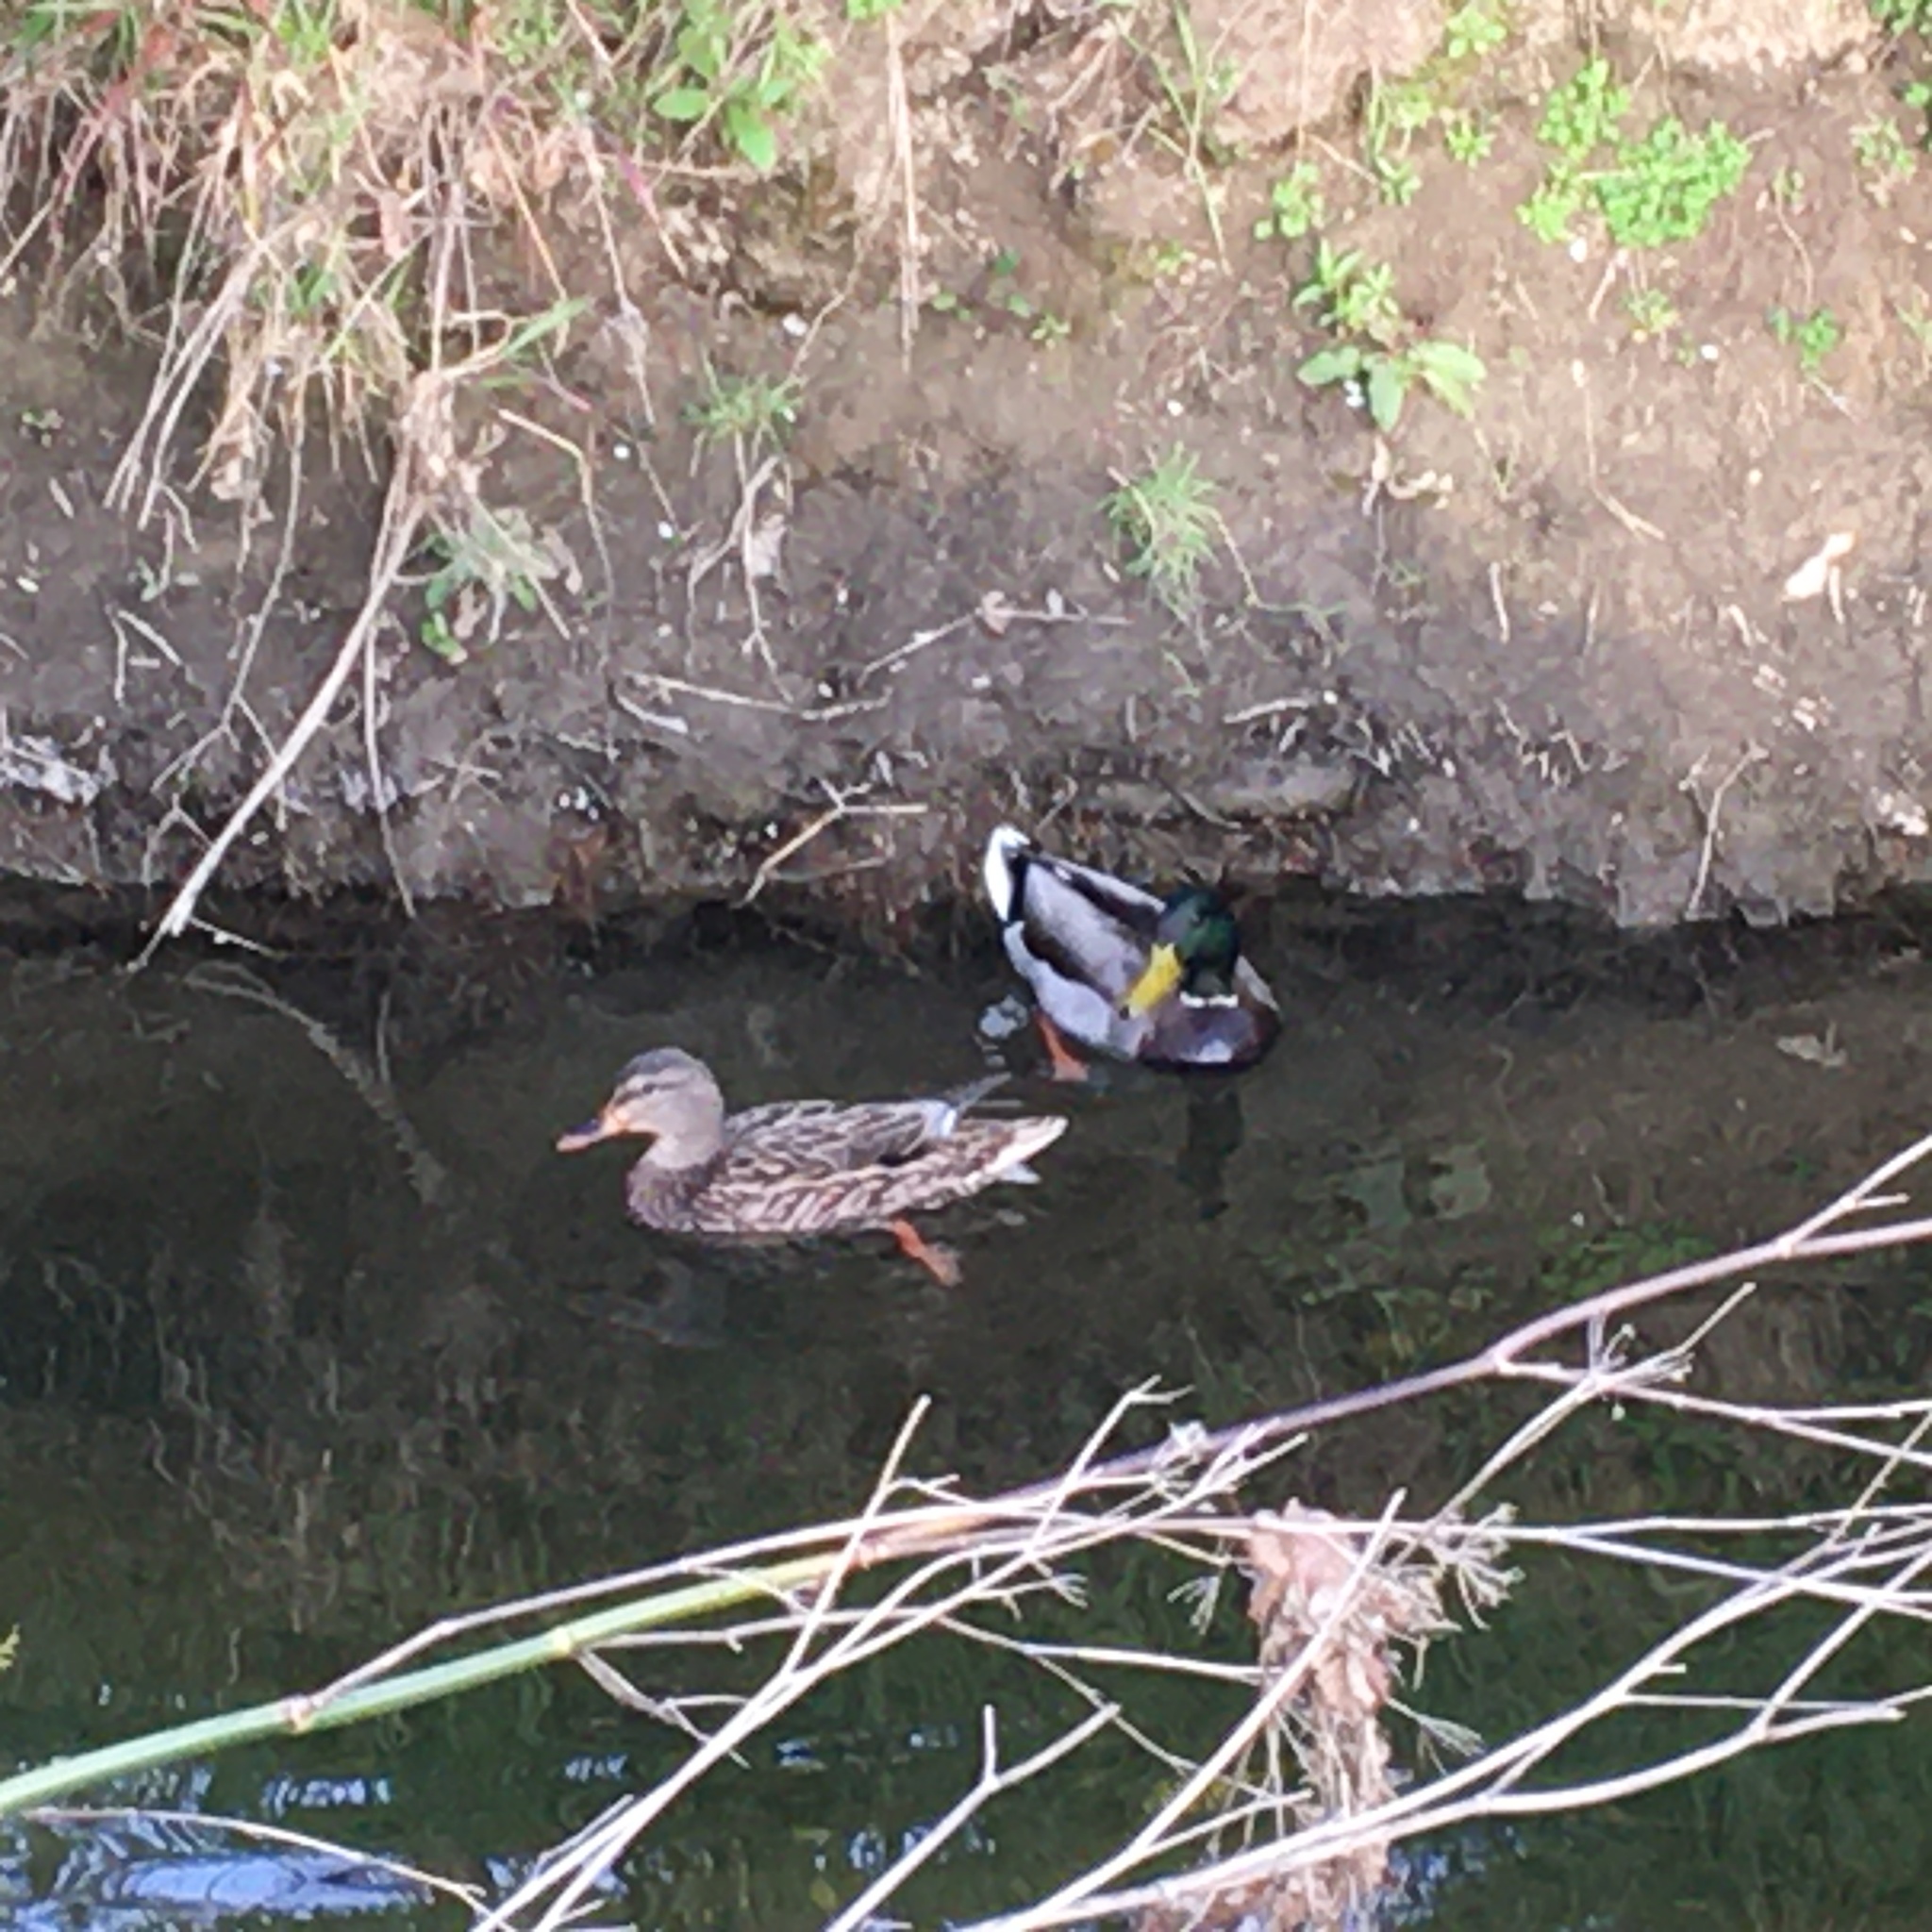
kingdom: Animalia
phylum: Chordata
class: Aves
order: Anseriformes
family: Anatidae
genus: Anas
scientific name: Anas platyrhynchos
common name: Mallard
